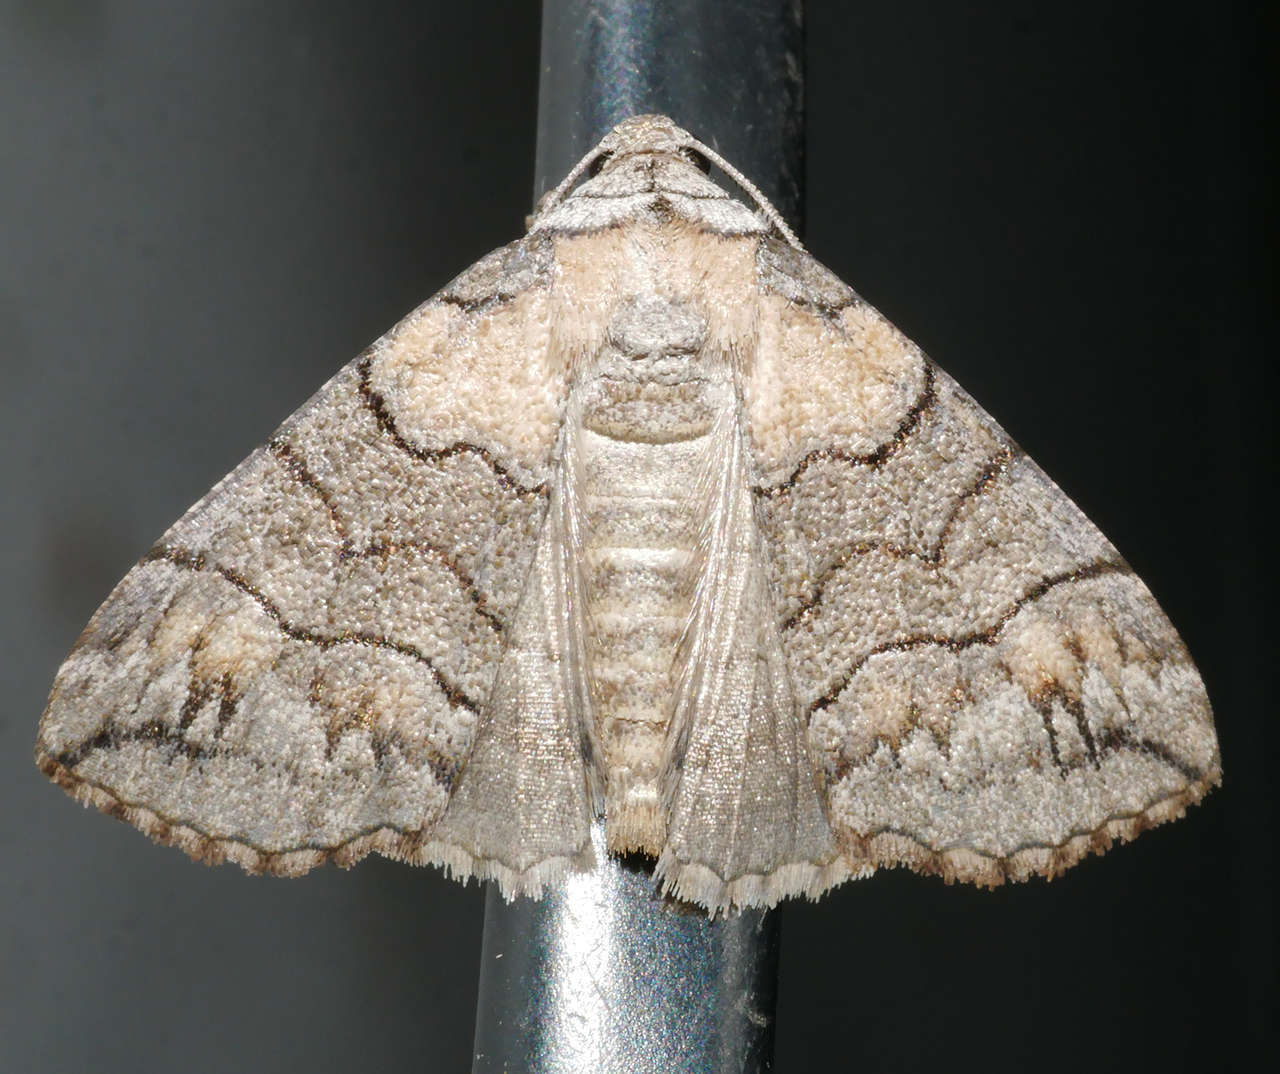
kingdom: Animalia
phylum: Arthropoda
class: Insecta
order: Lepidoptera
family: Geometridae
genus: Dysbatus
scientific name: Dysbatus singularis
